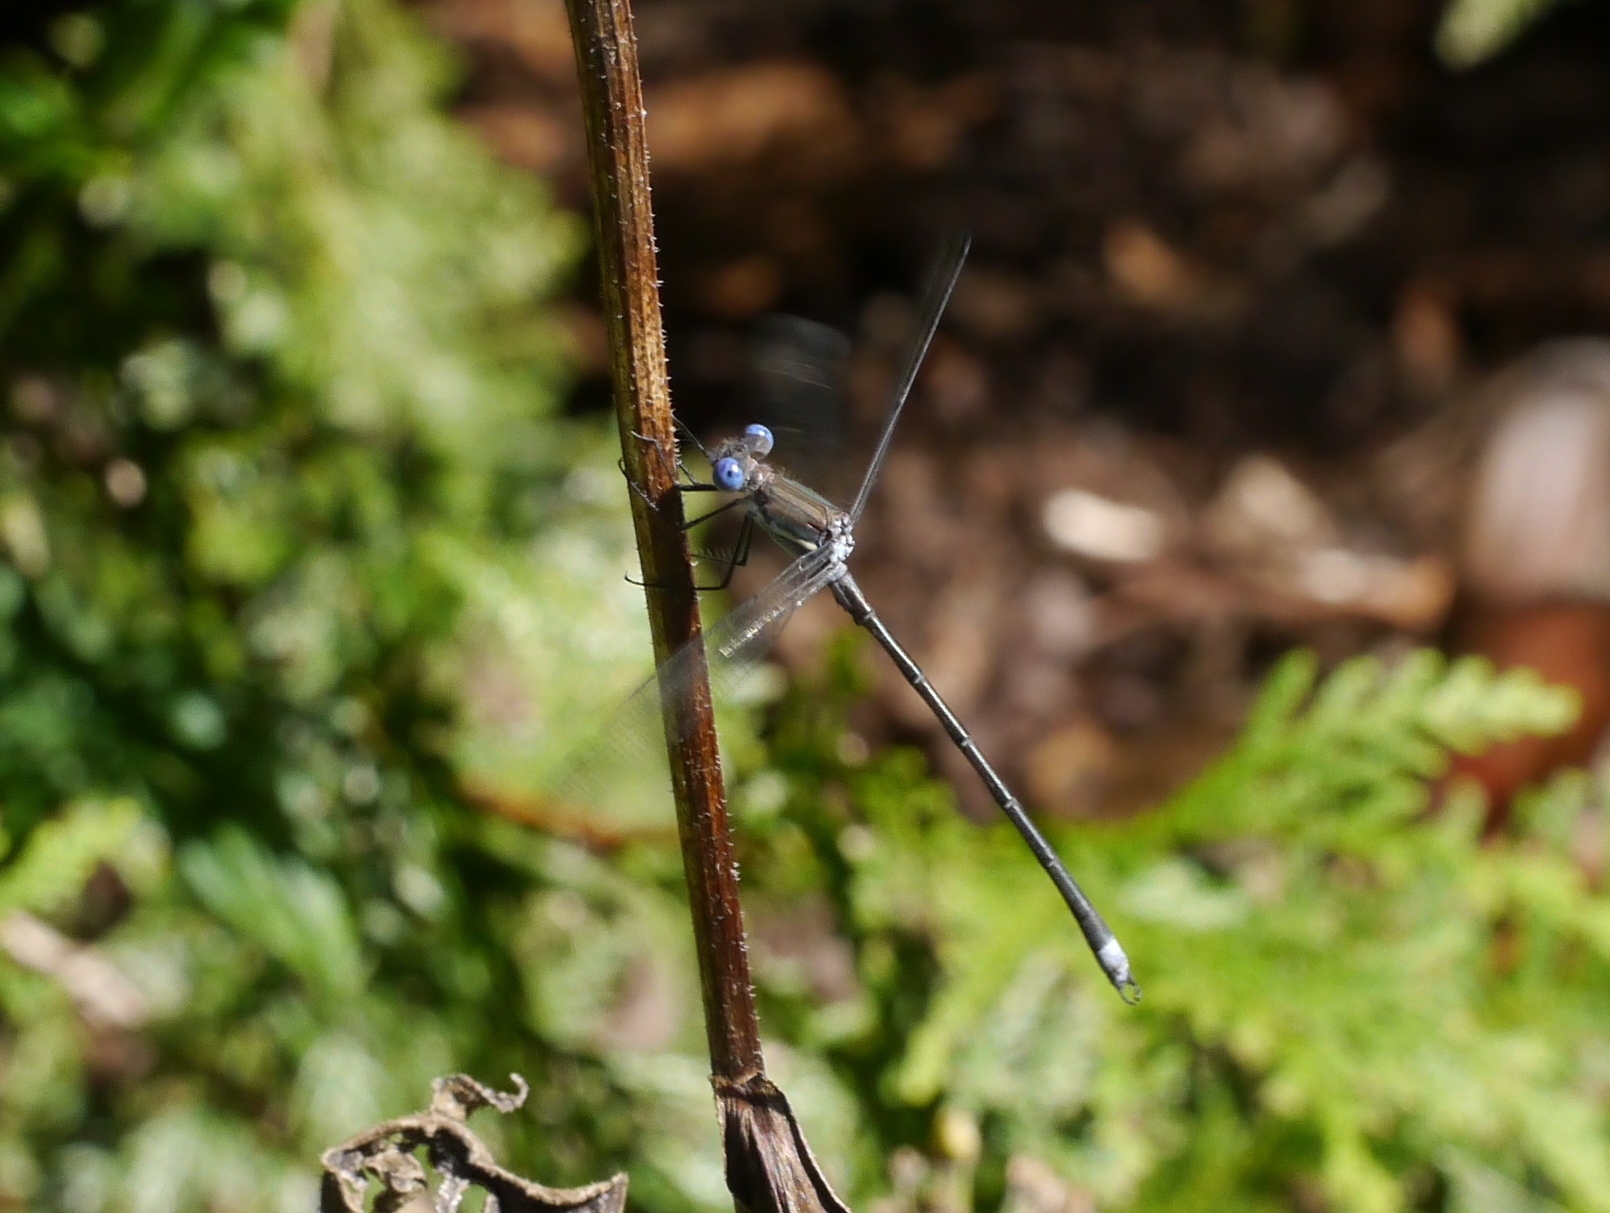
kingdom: Animalia
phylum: Arthropoda
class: Insecta
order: Odonata
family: Lestidae
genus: Archilestes
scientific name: Archilestes grandis
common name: Great spreadwing
